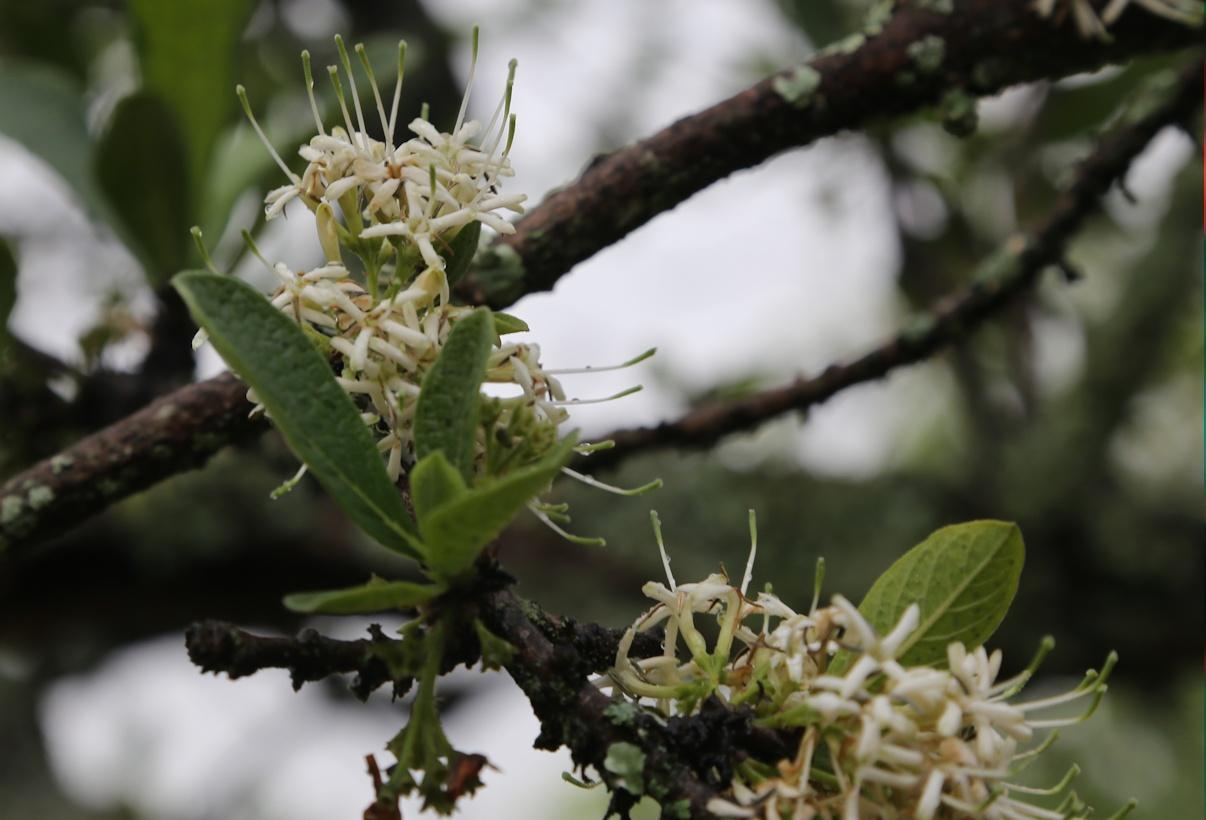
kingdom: Plantae
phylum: Tracheophyta
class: Magnoliopsida
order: Gentianales
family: Rubiaceae
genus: Pavetta
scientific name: Pavetta schumanniana
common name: Poisonous bride's-bush
